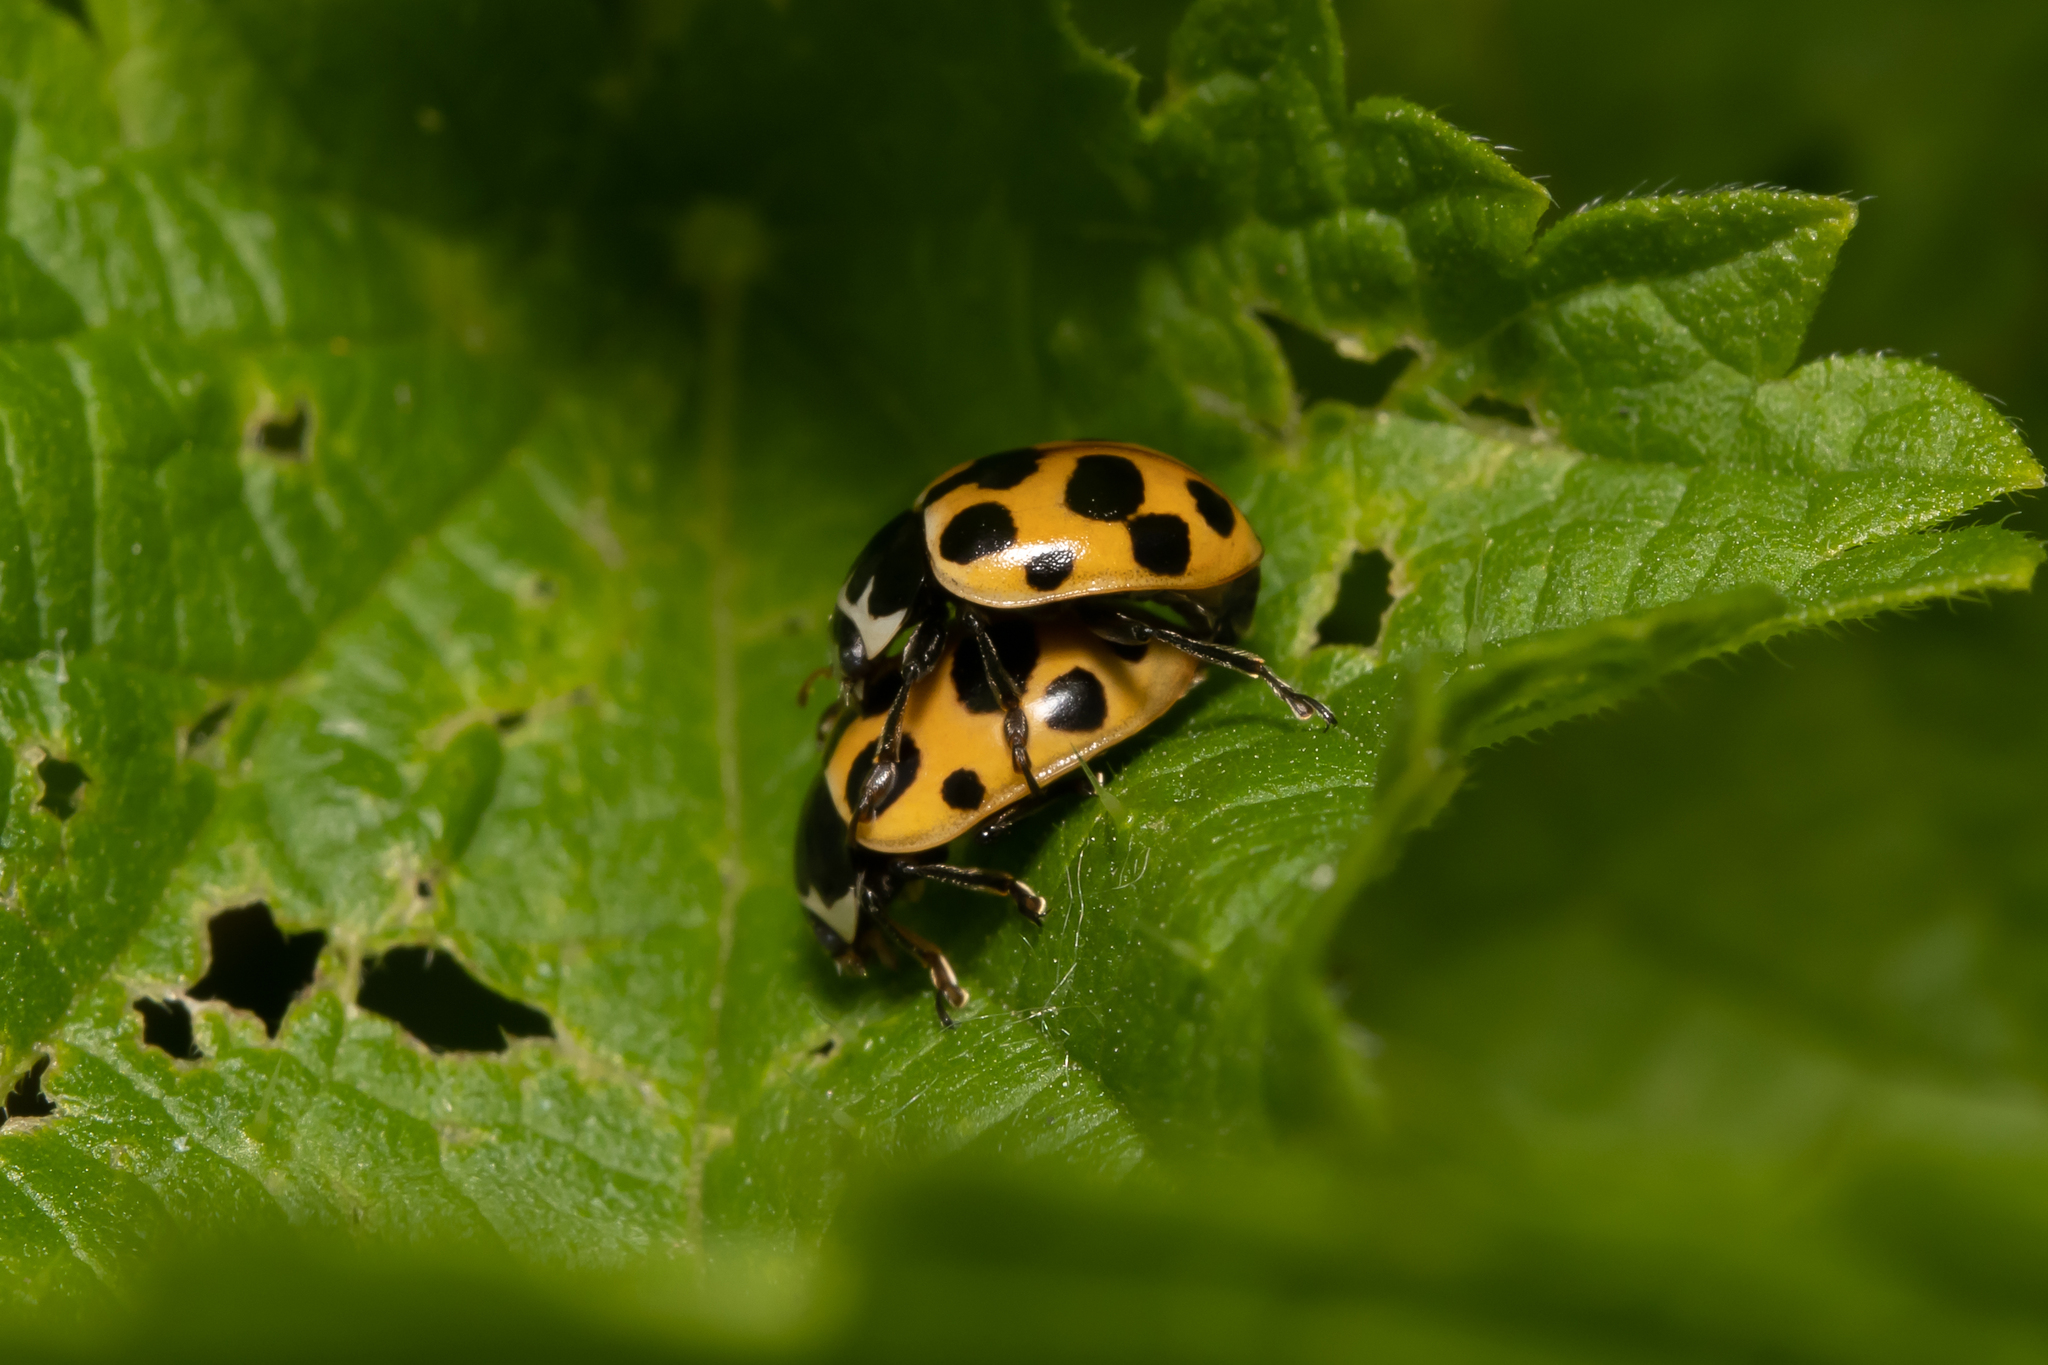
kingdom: Animalia
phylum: Arthropoda
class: Insecta
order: Coleoptera
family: Coccinellidae
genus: Ceratomegilla
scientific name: Ceratomegilla notata
